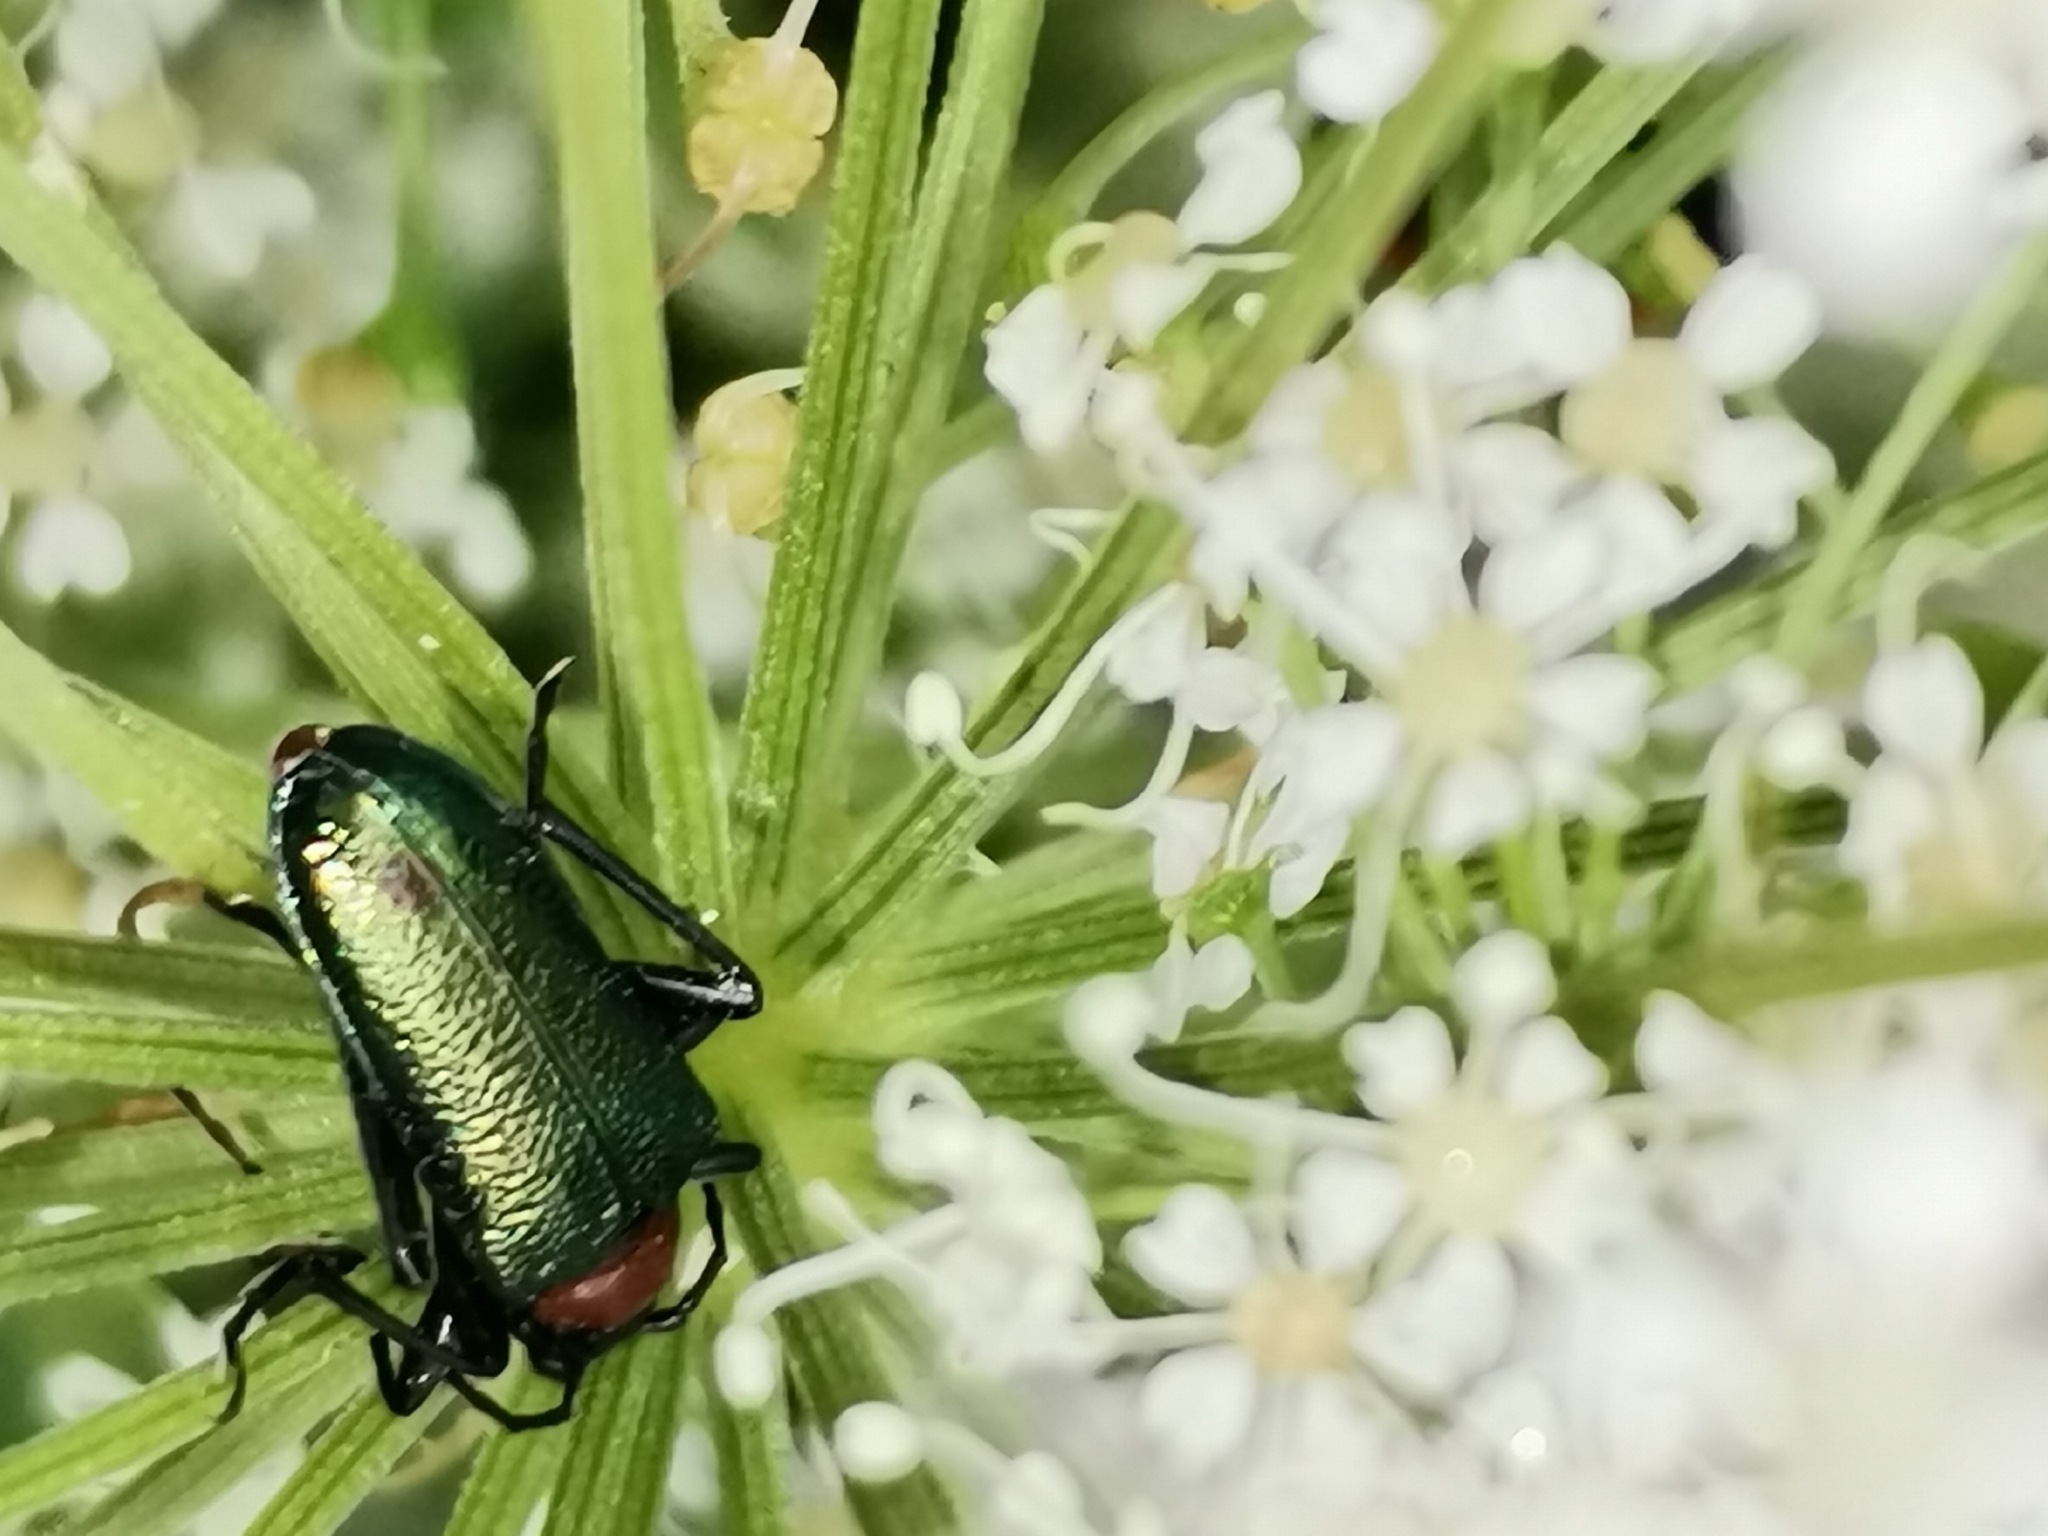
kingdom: Animalia
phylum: Arthropoda
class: Insecta
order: Coleoptera
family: Cerambycidae
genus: Gaurotes
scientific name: Gaurotes virginea
